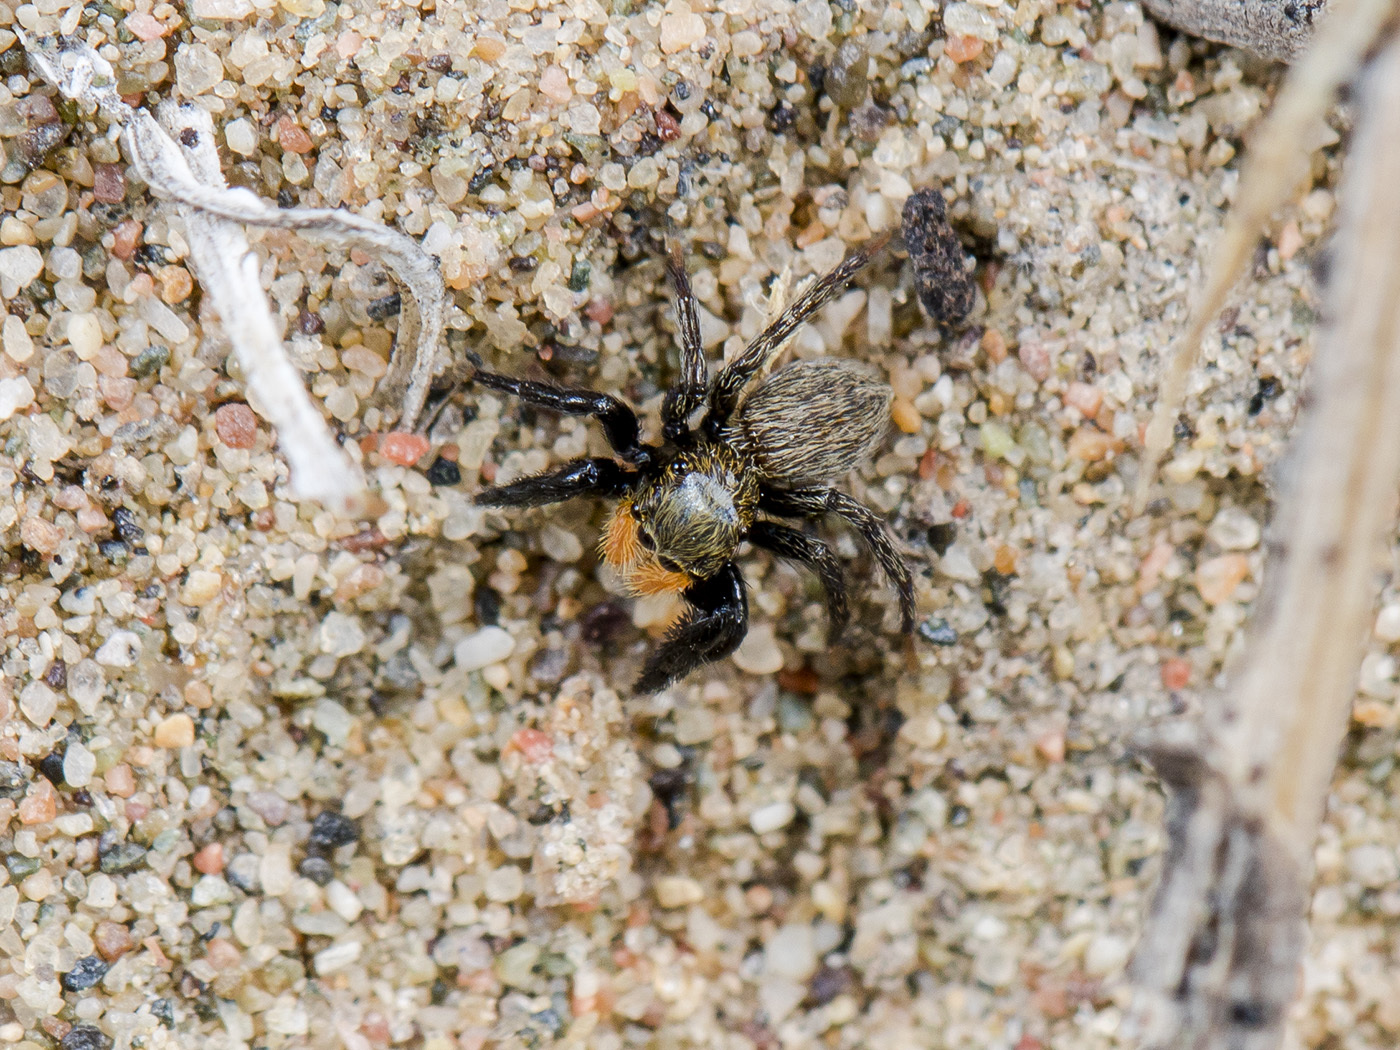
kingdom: Animalia
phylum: Arthropoda
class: Arachnida
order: Araneae
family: Salticidae
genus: Euophrys
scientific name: Euophrys uralensis
